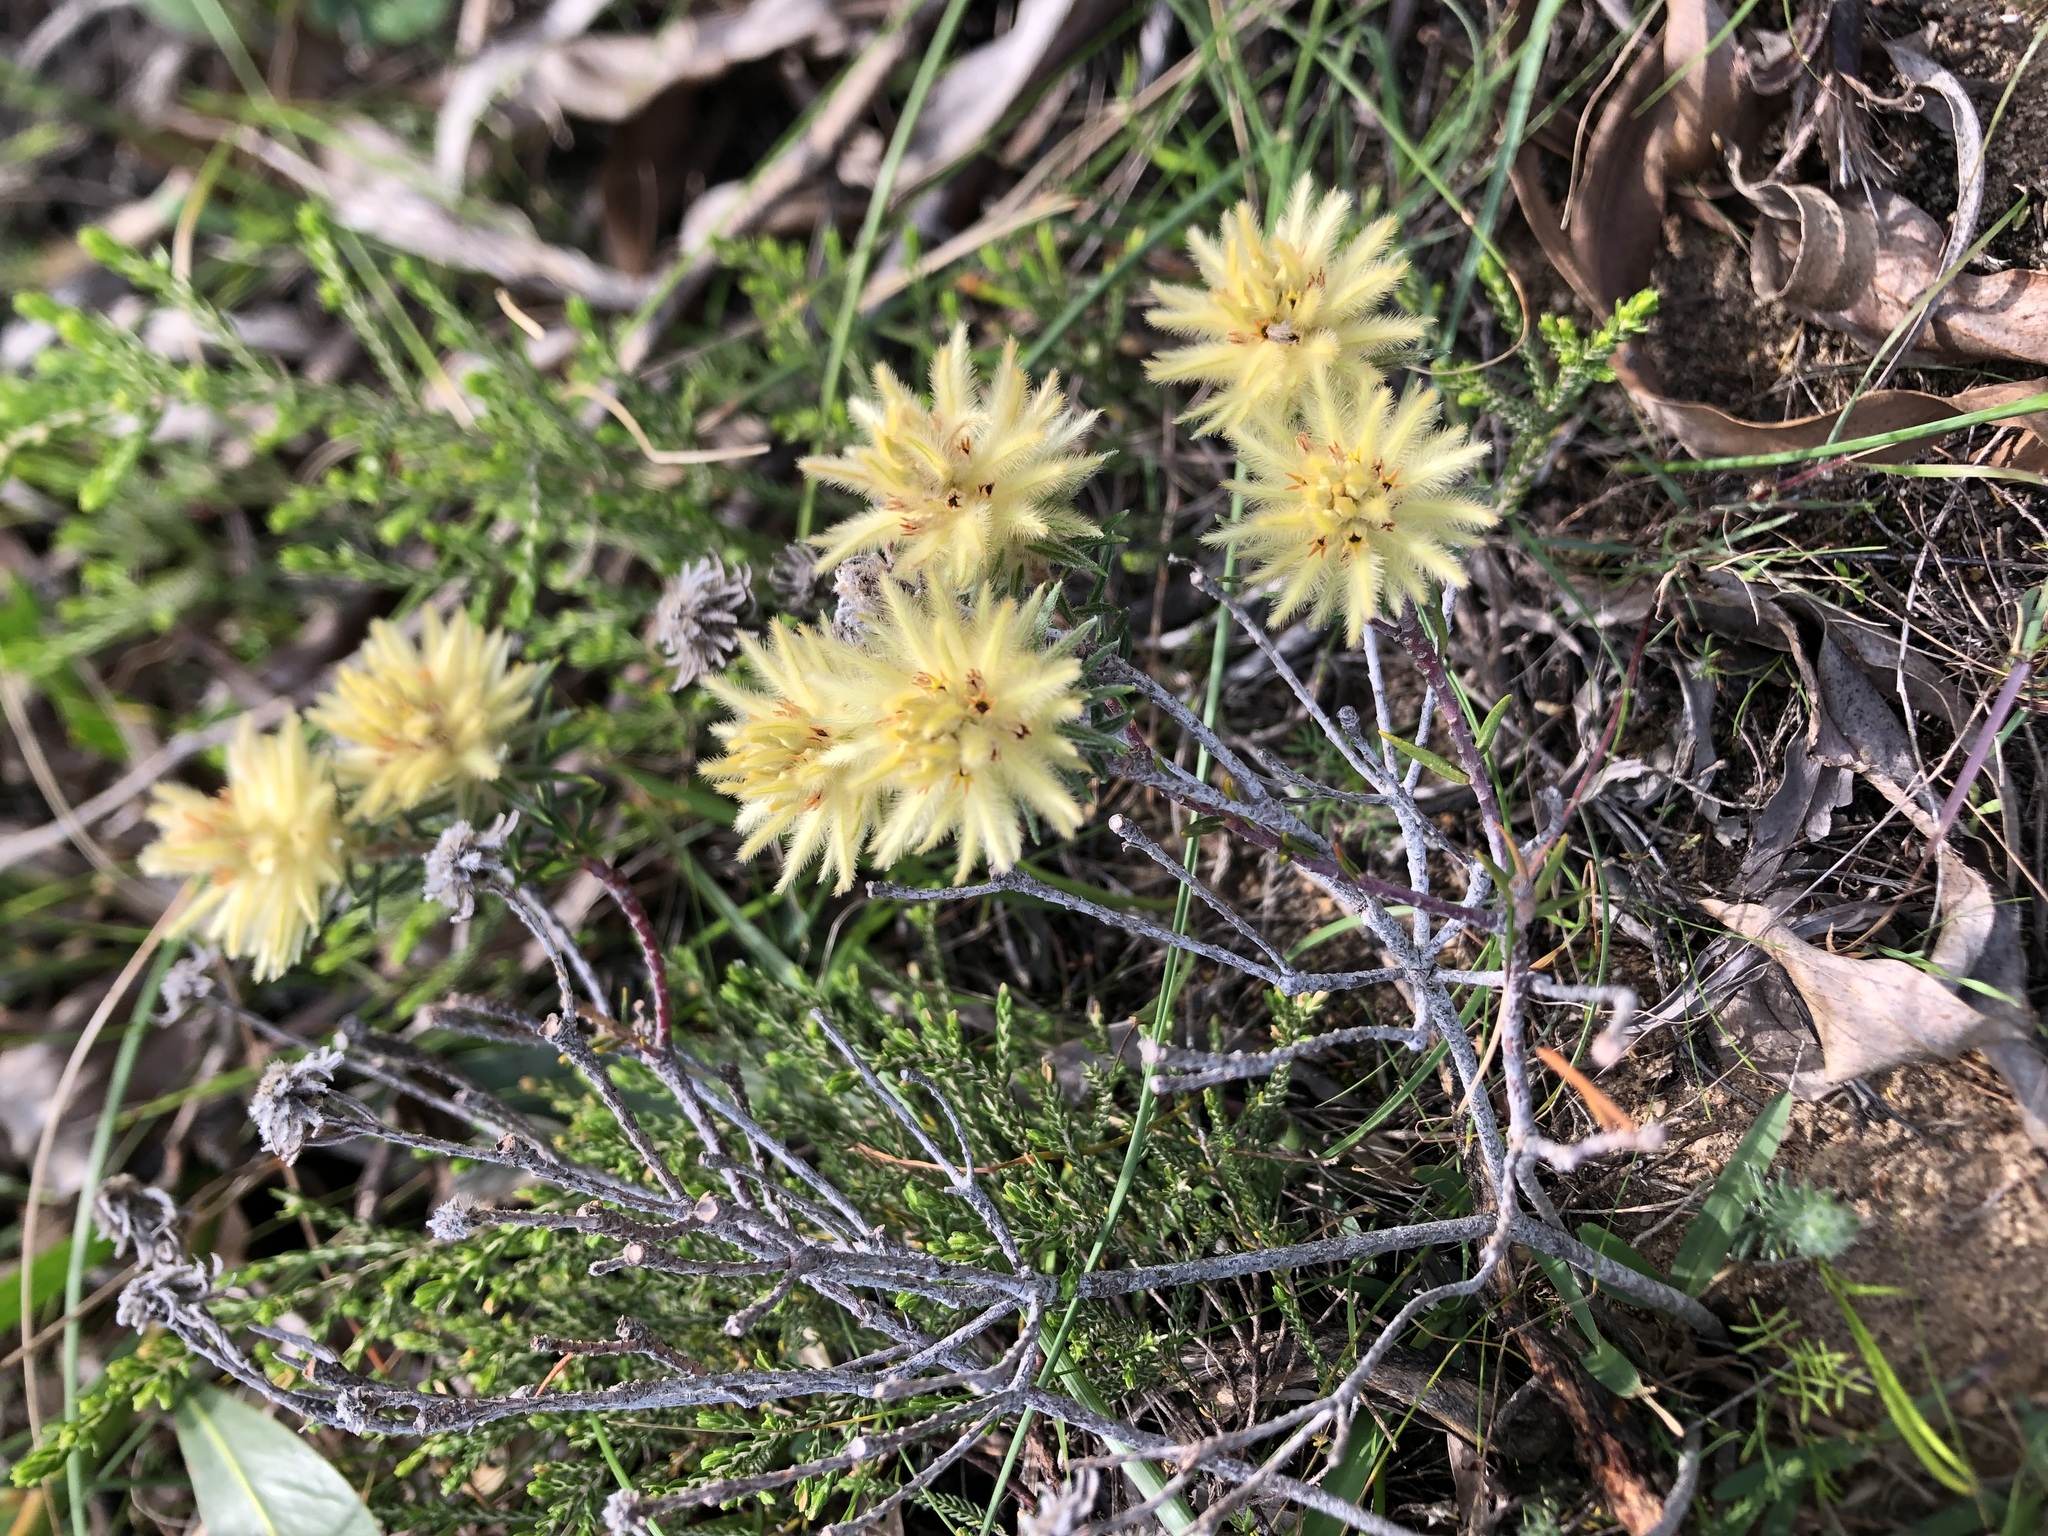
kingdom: Plantae
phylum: Tracheophyta
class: Magnoliopsida
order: Rosales
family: Rhamnaceae
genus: Phylica
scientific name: Phylica plumosa
